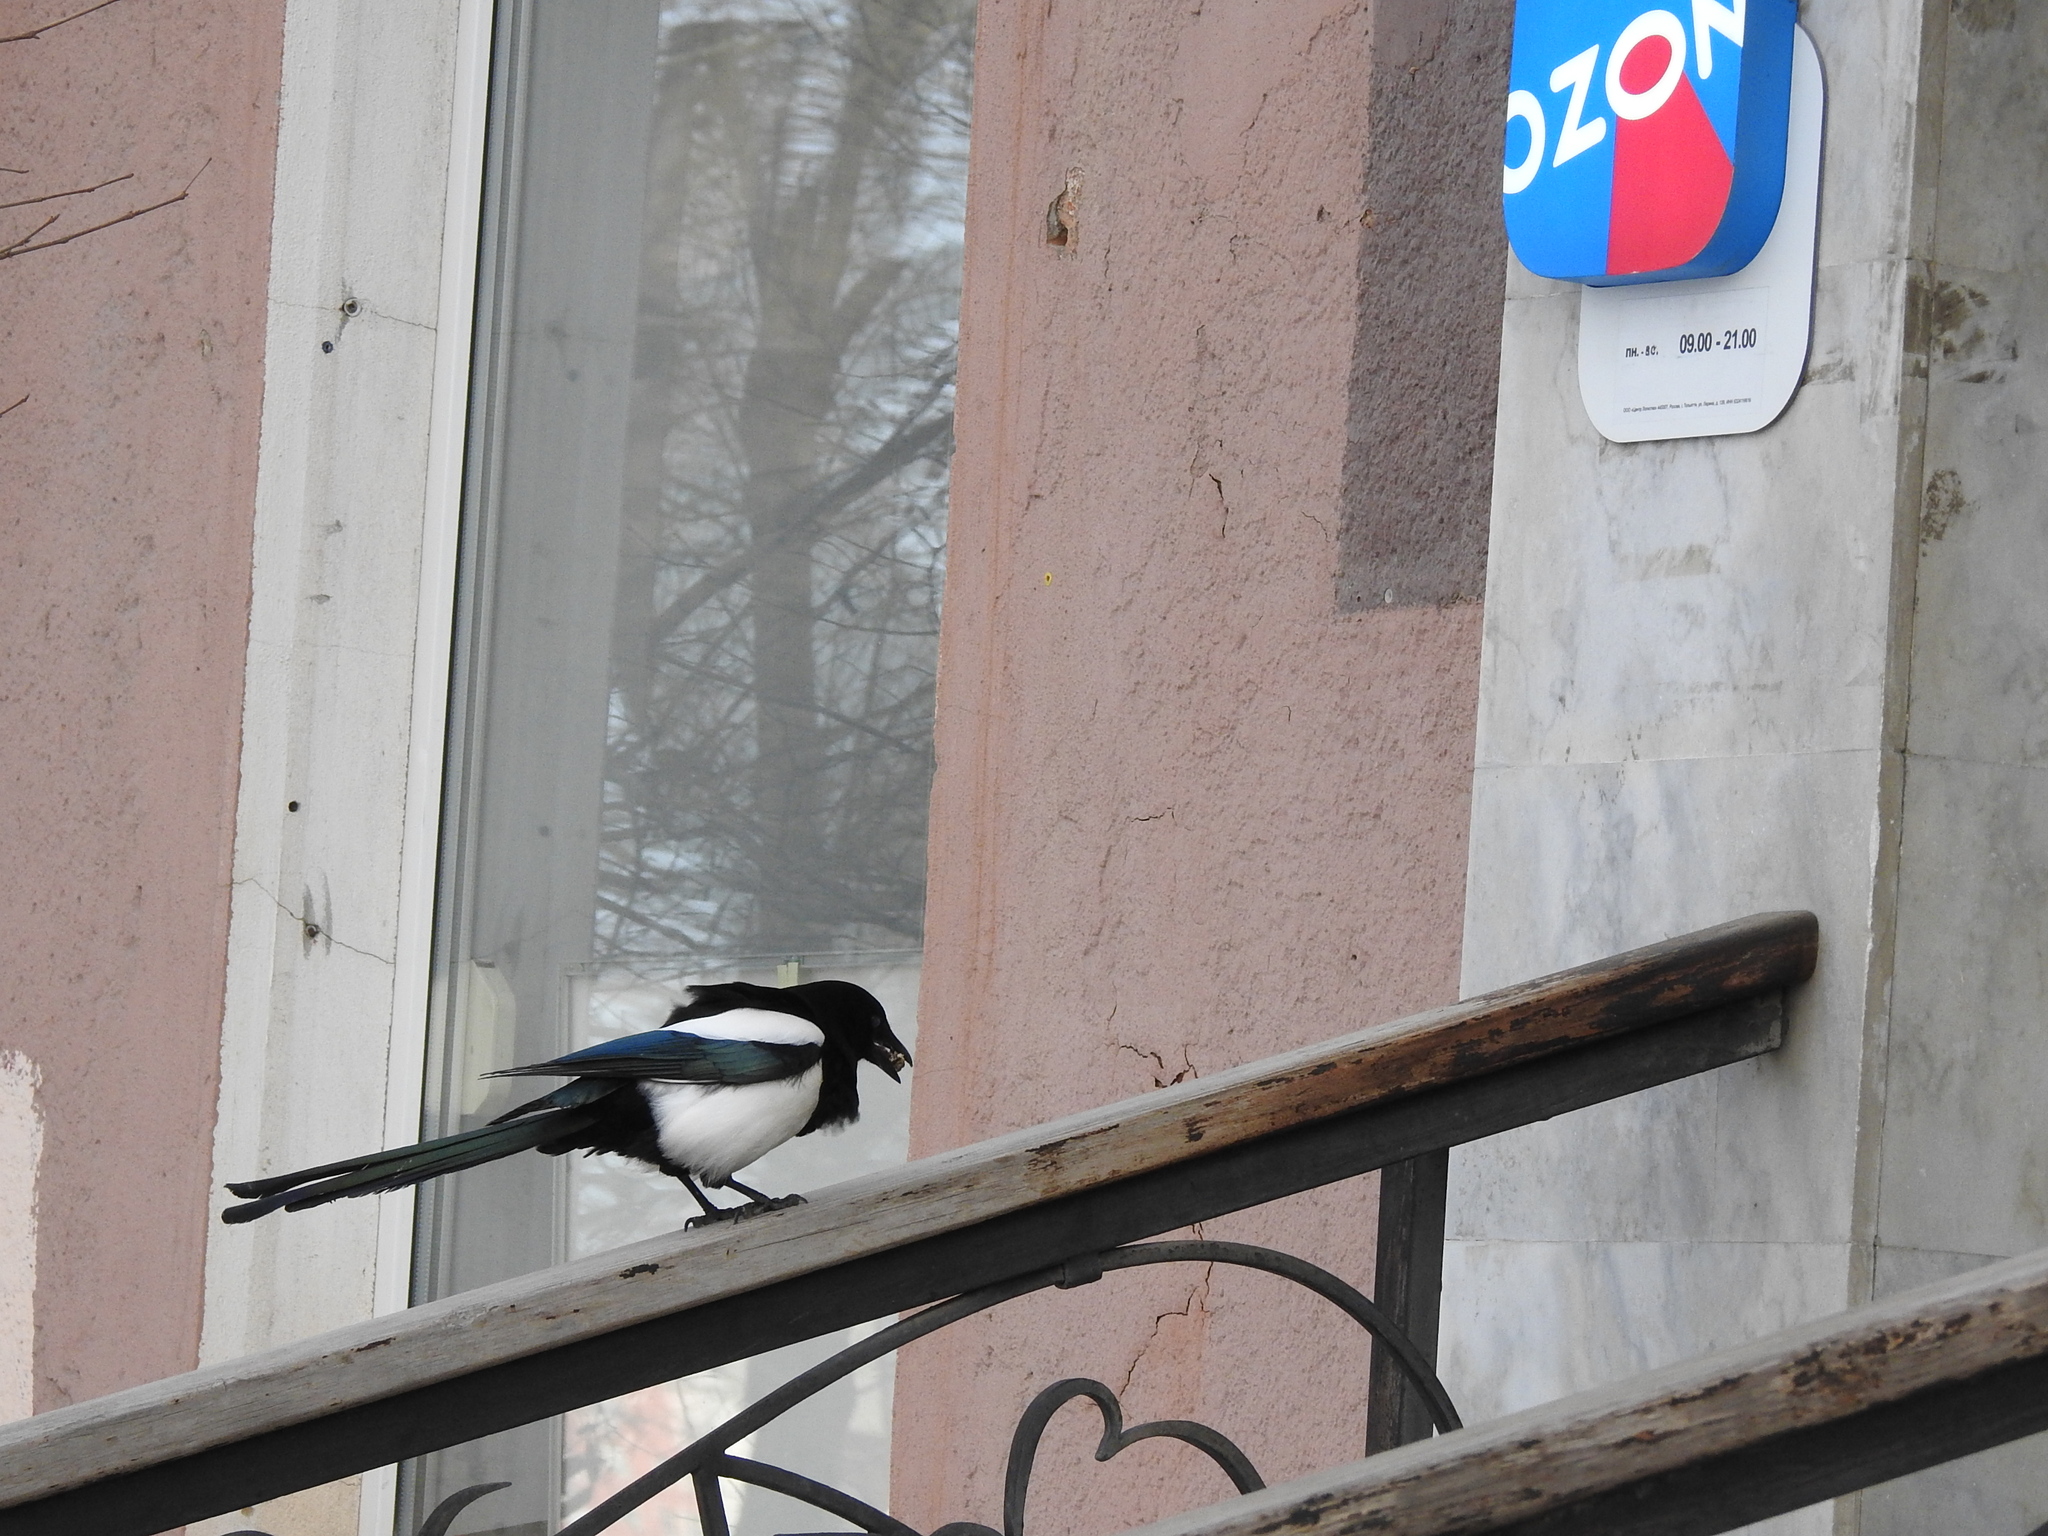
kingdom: Animalia
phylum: Chordata
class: Aves
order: Passeriformes
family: Corvidae
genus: Pica
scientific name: Pica pica
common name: Eurasian magpie
